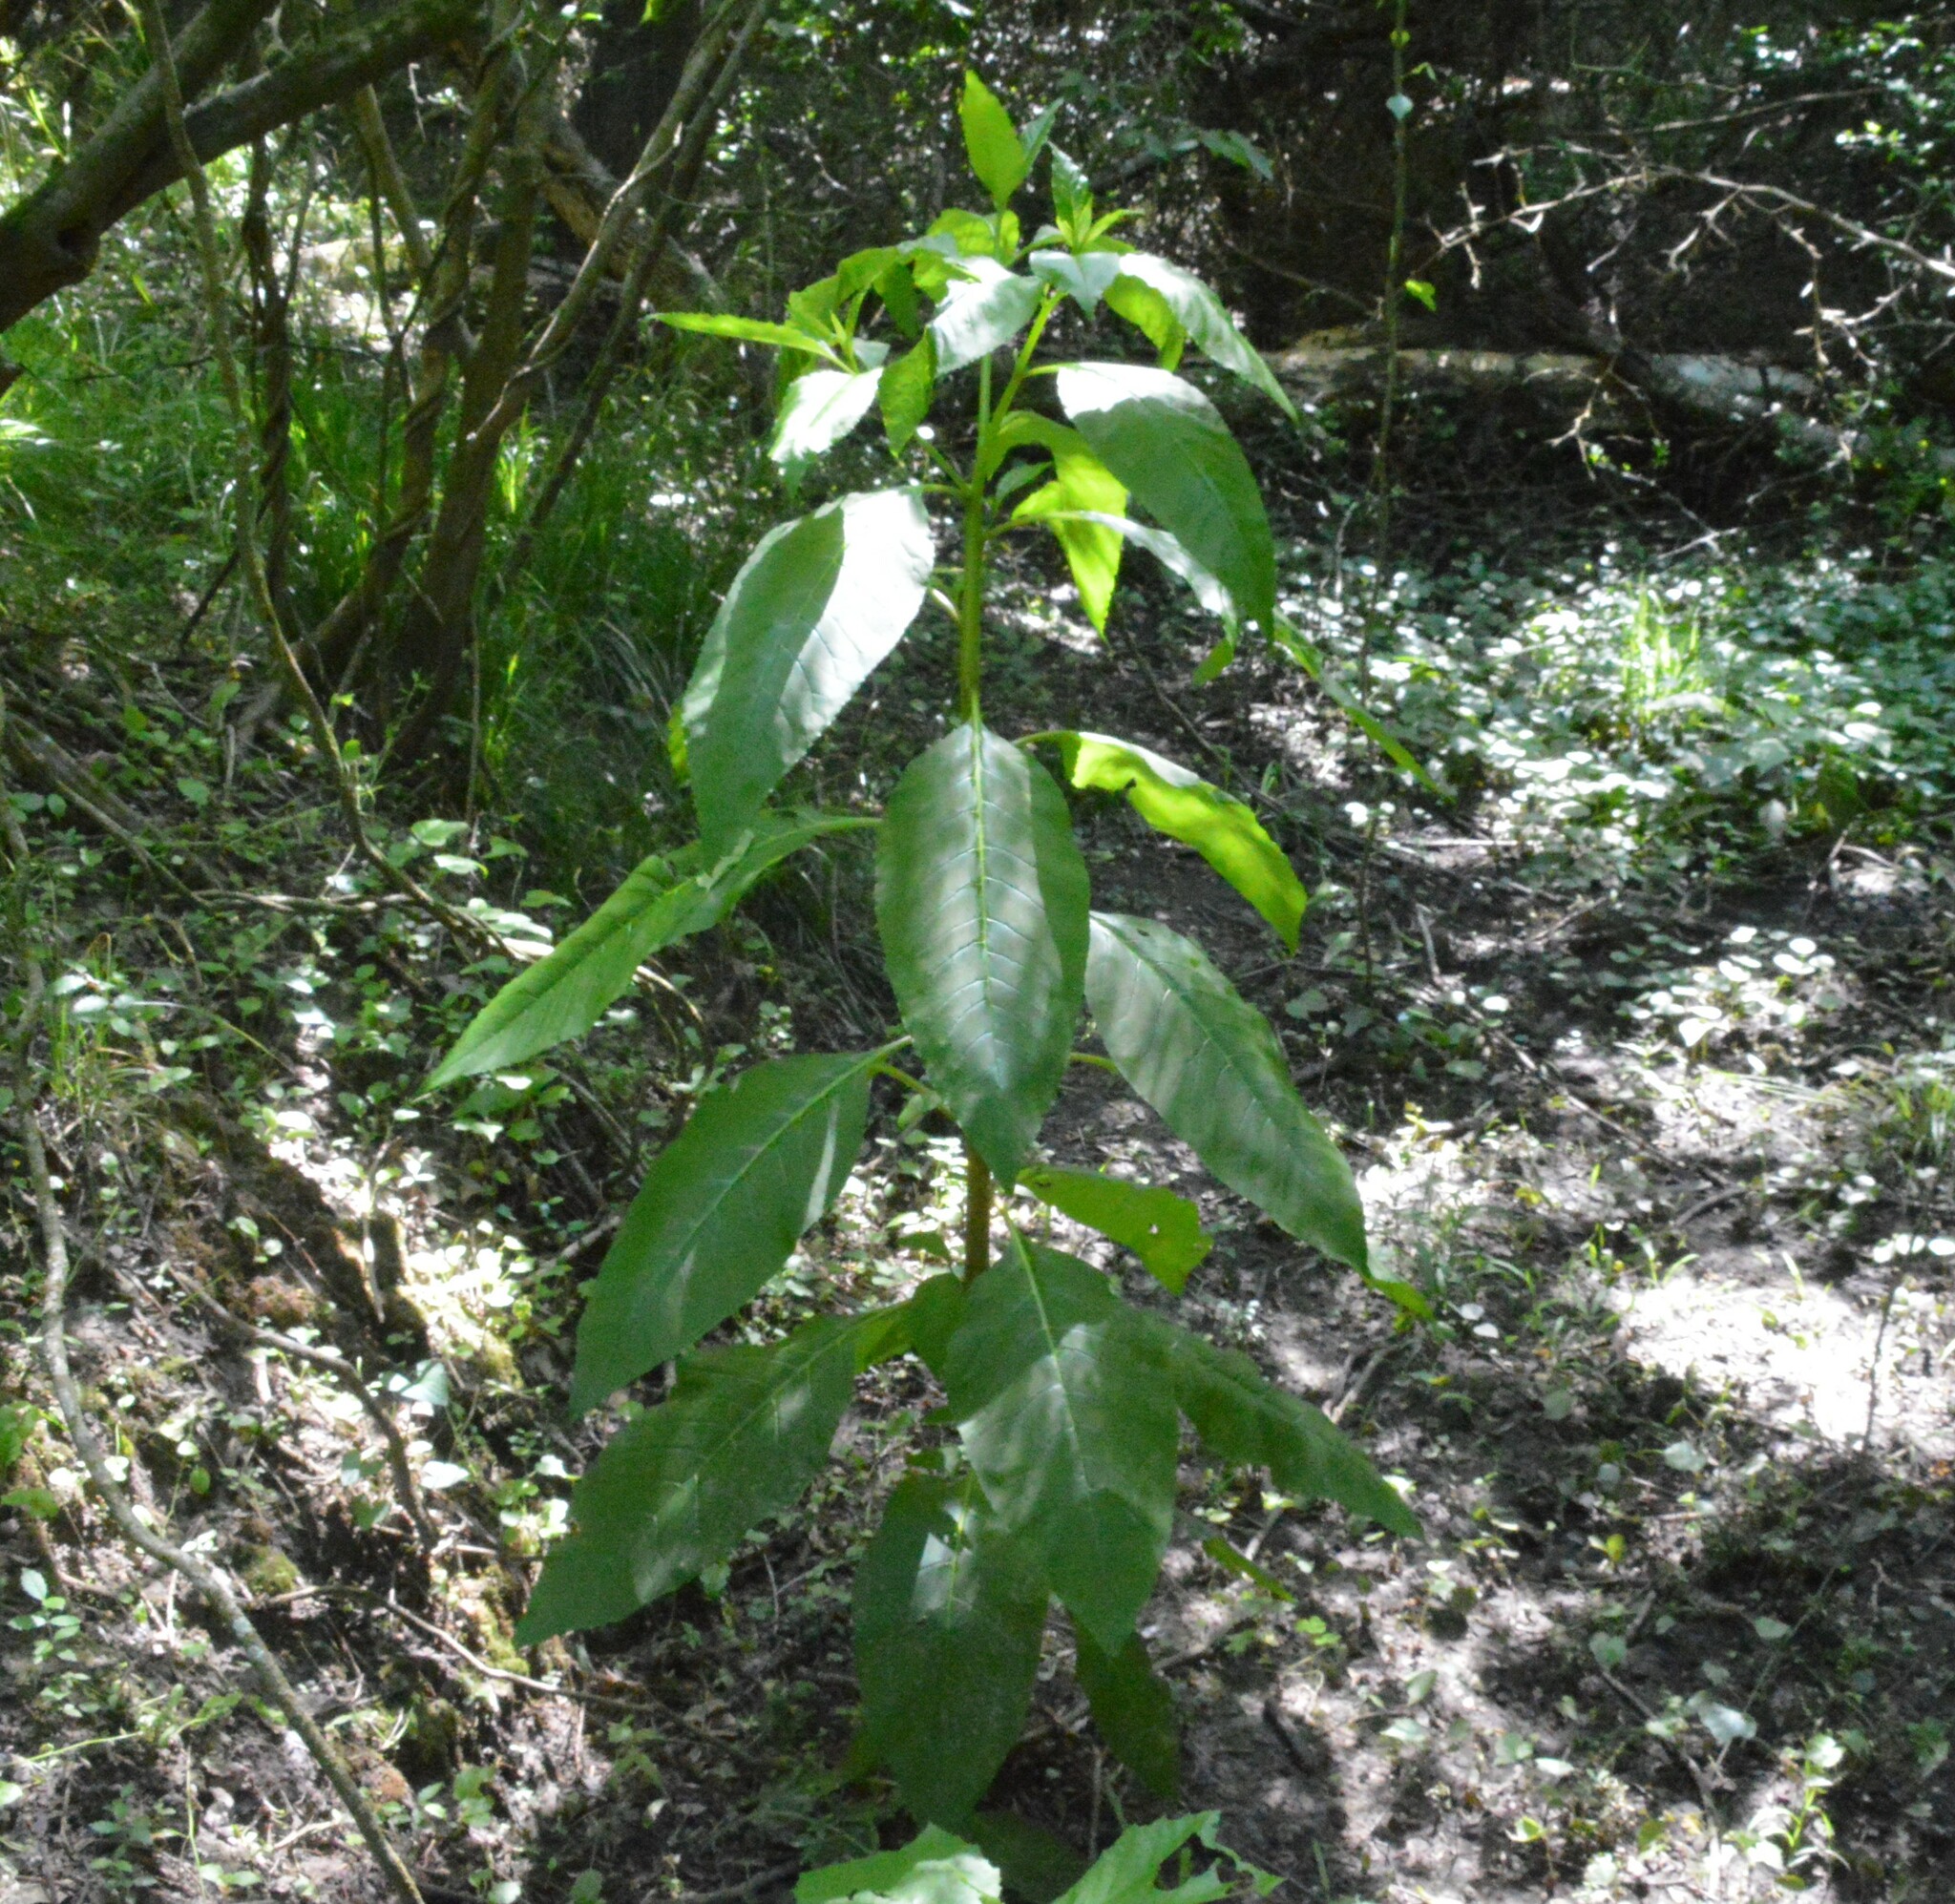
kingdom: Plantae
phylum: Tracheophyta
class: Magnoliopsida
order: Caryophyllales
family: Phytolaccaceae
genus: Phytolacca
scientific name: Phytolacca americana
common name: American pokeweed
